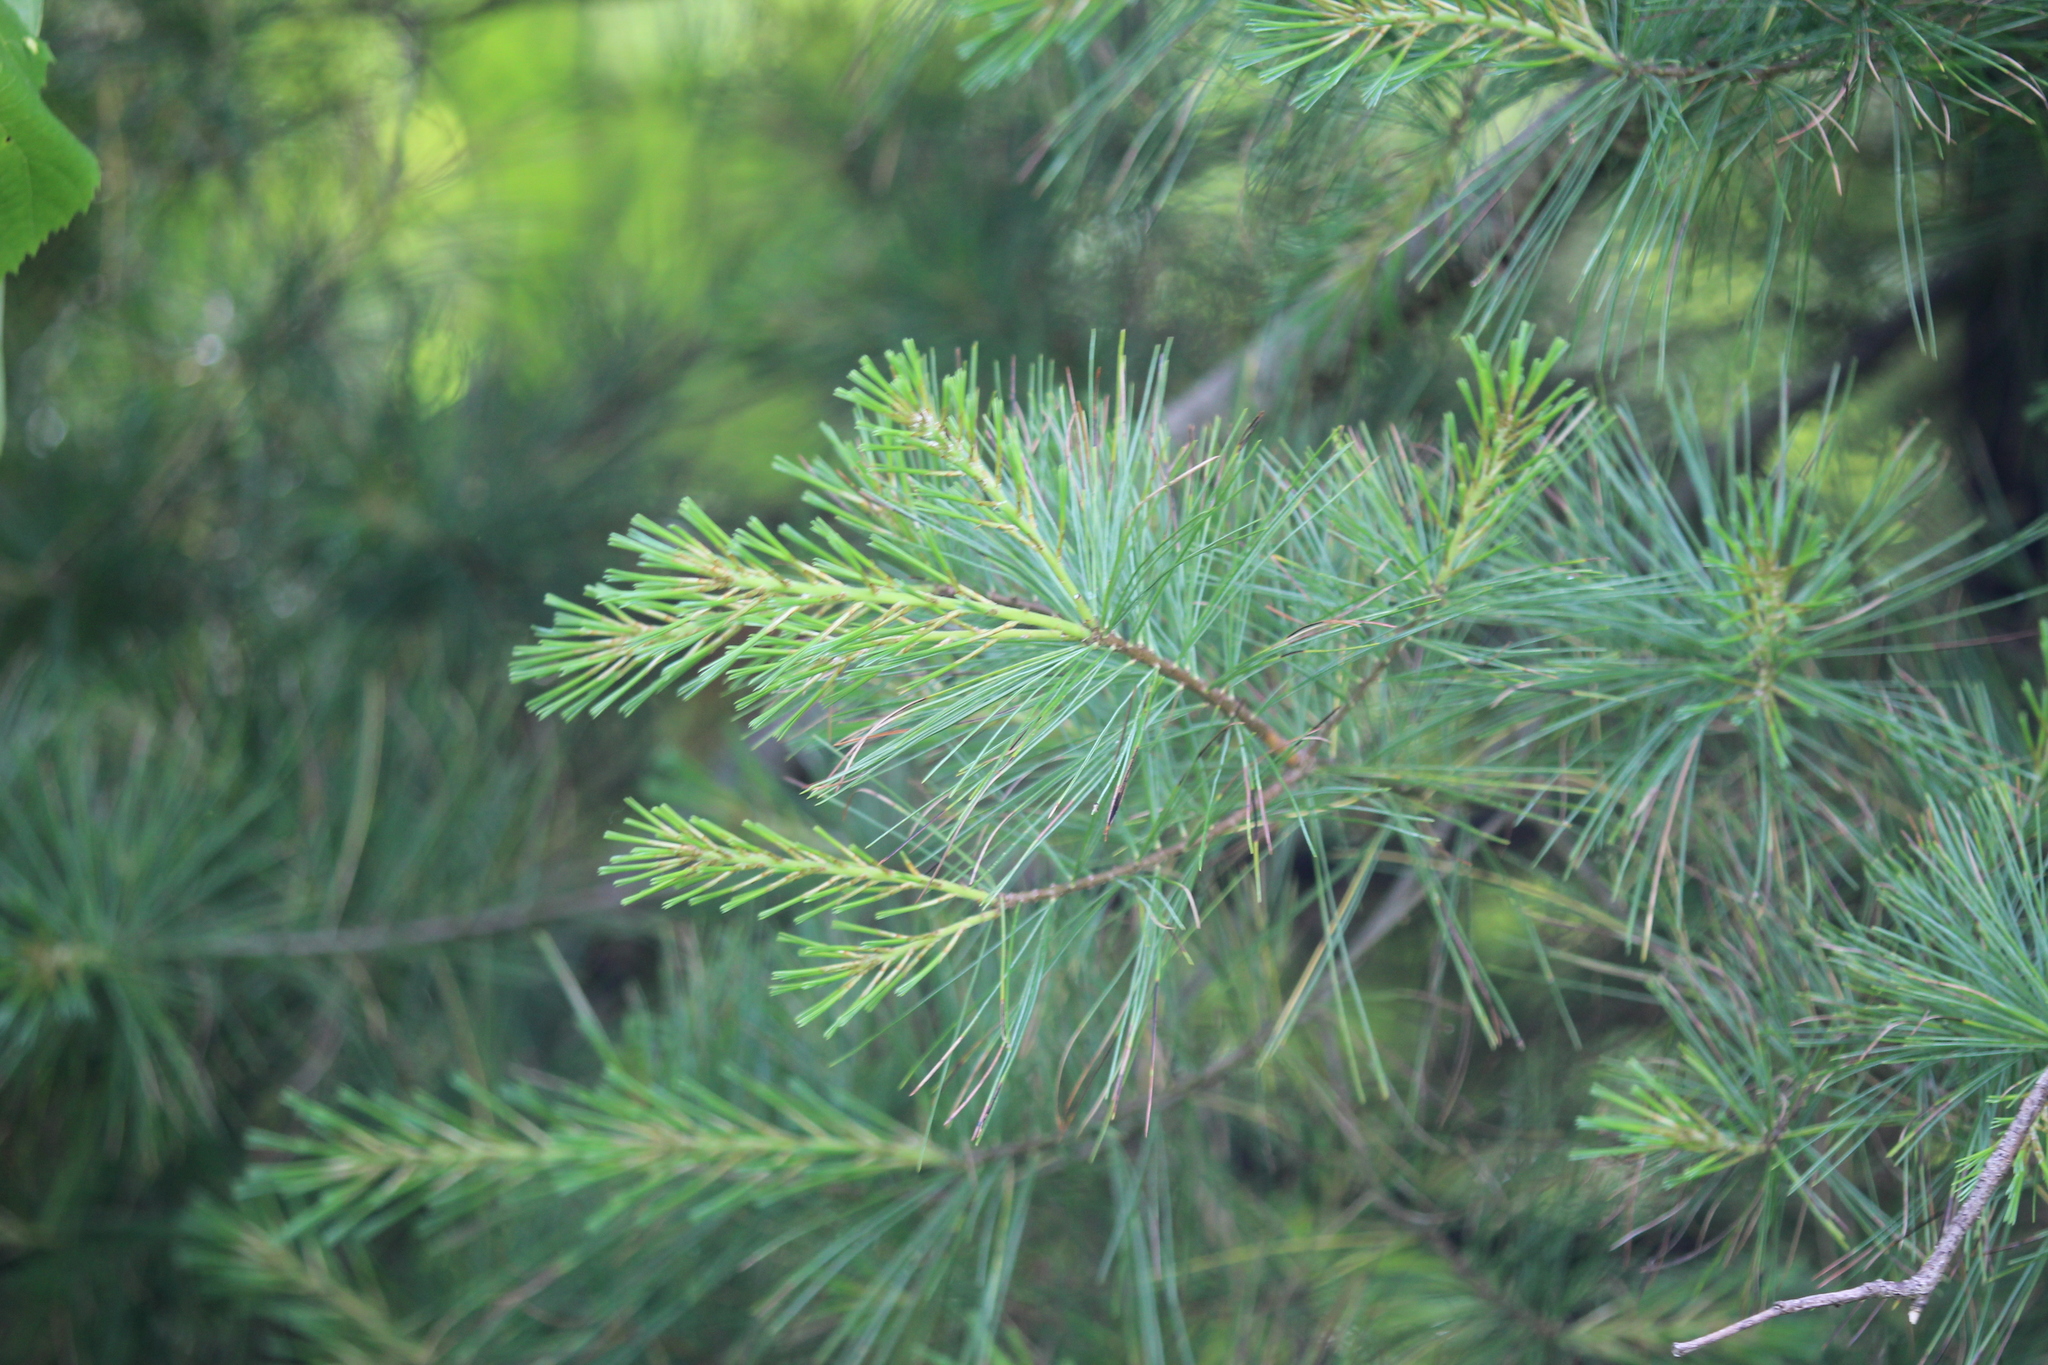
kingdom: Plantae
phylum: Tracheophyta
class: Pinopsida
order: Pinales
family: Pinaceae
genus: Pinus
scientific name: Pinus strobus
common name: Weymouth pine
